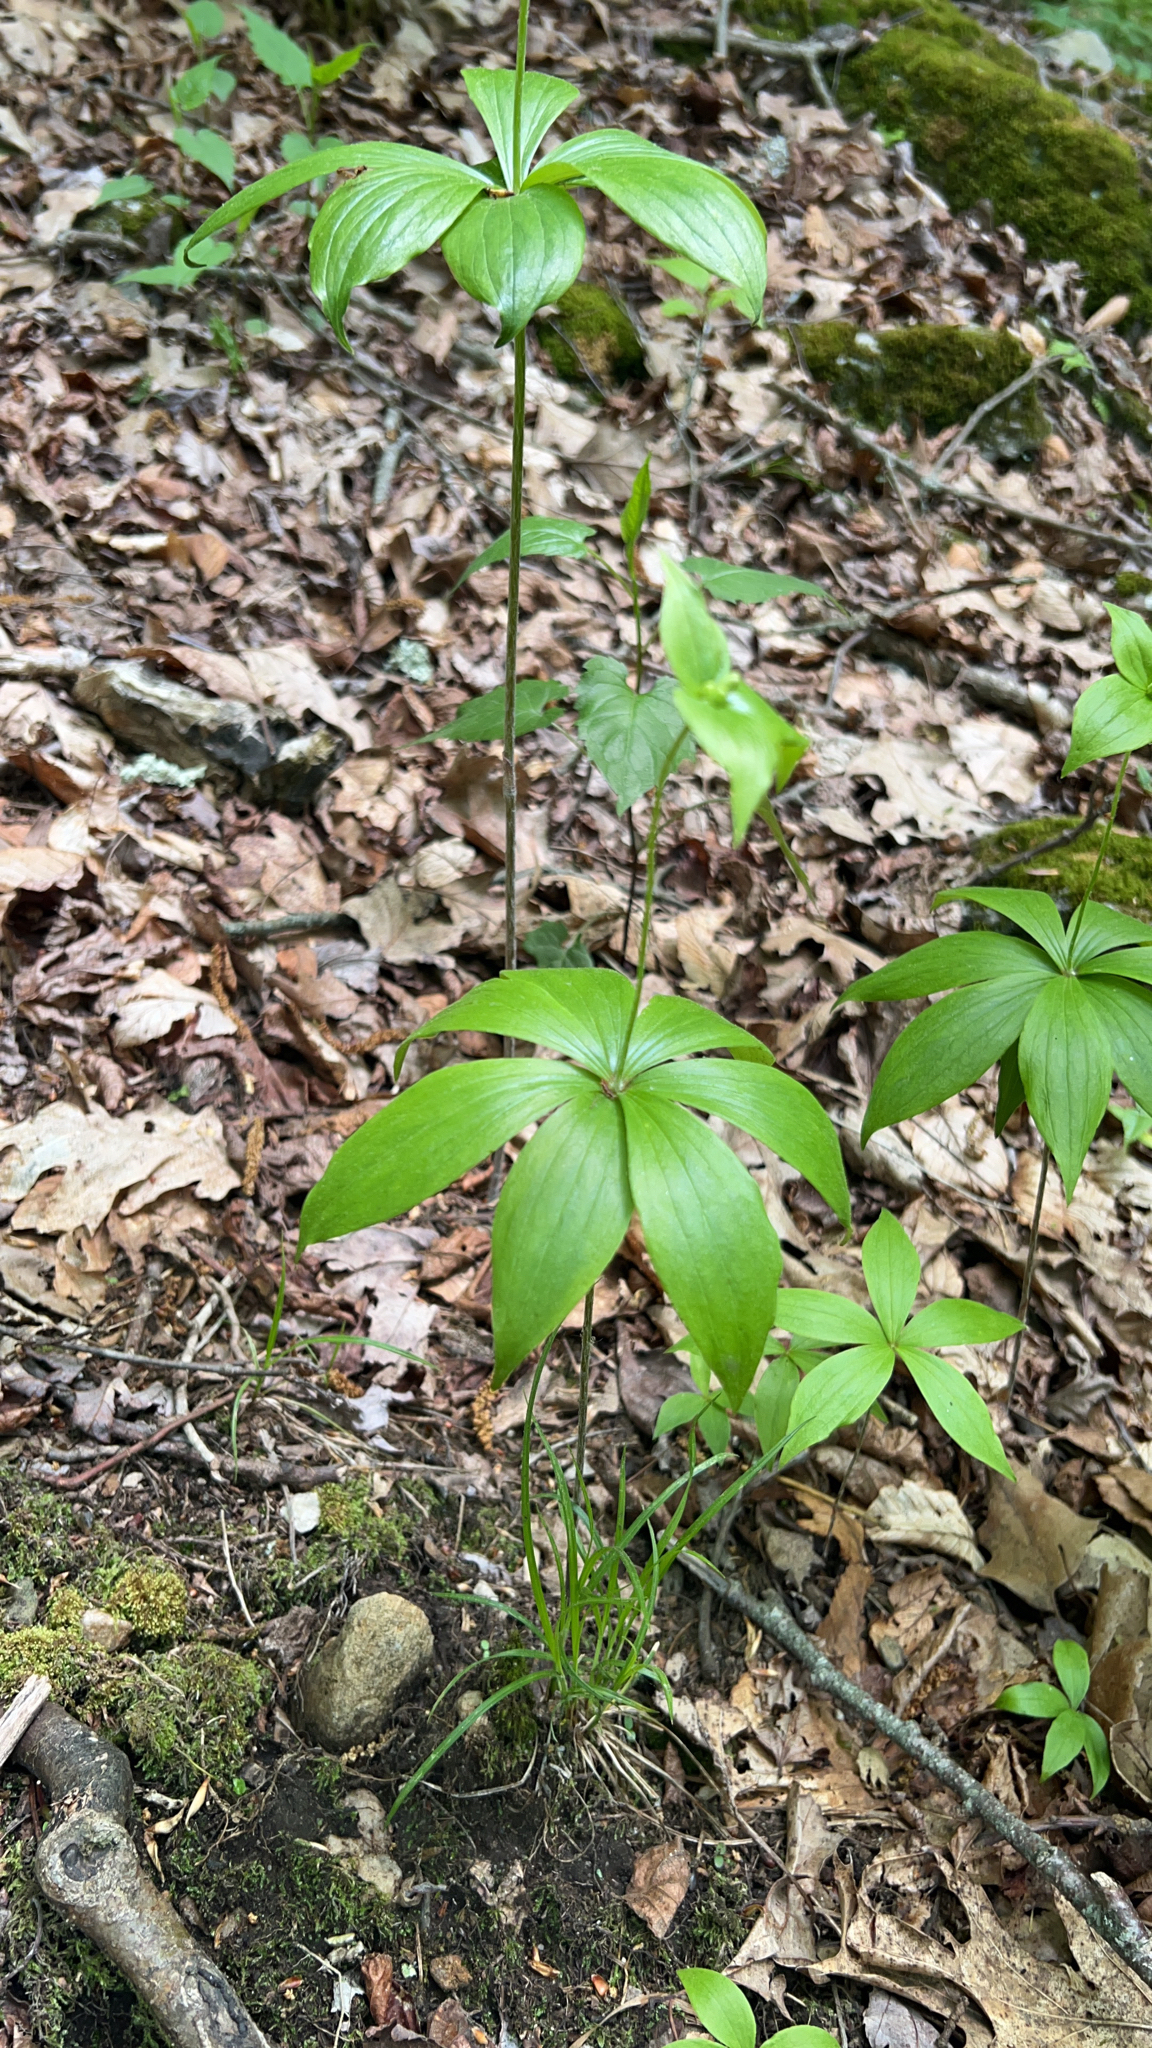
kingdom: Plantae
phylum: Tracheophyta
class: Liliopsida
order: Liliales
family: Liliaceae
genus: Medeola
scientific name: Medeola virginiana
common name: Indian cucumber-root
